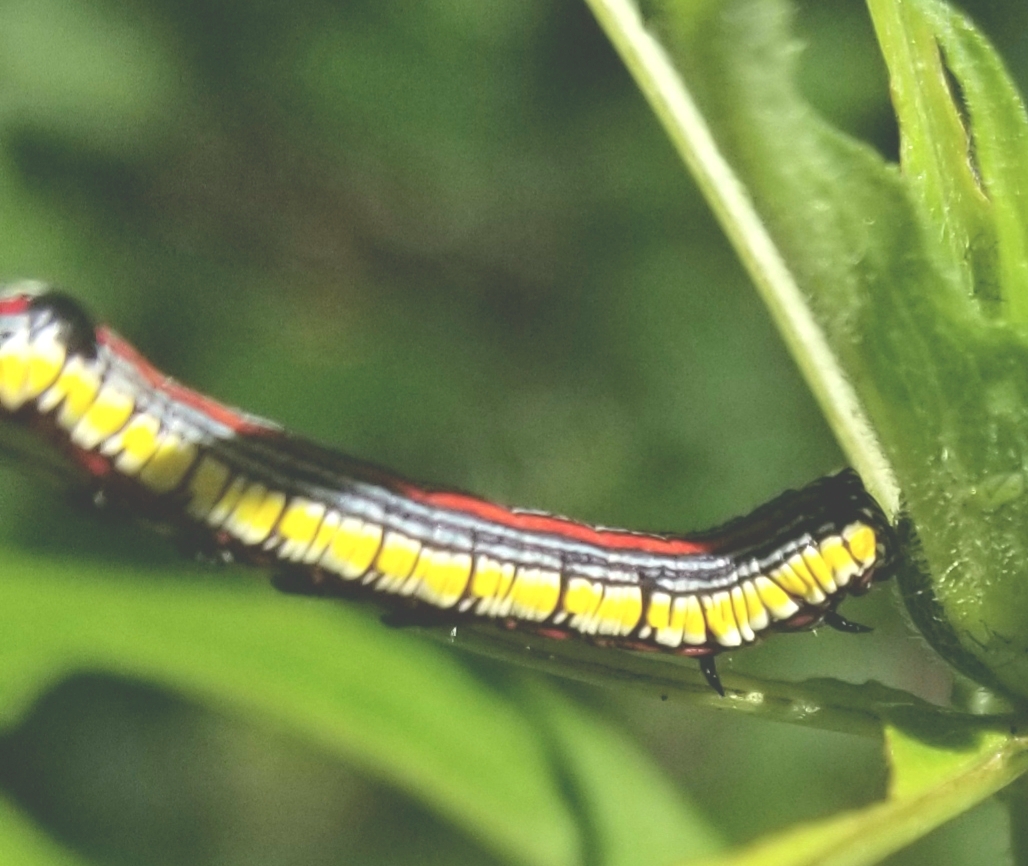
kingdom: Animalia
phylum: Arthropoda
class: Insecta
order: Lepidoptera
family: Noctuidae
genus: Cucullia
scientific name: Cucullia convexipennis
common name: Brown-hooded owlet
